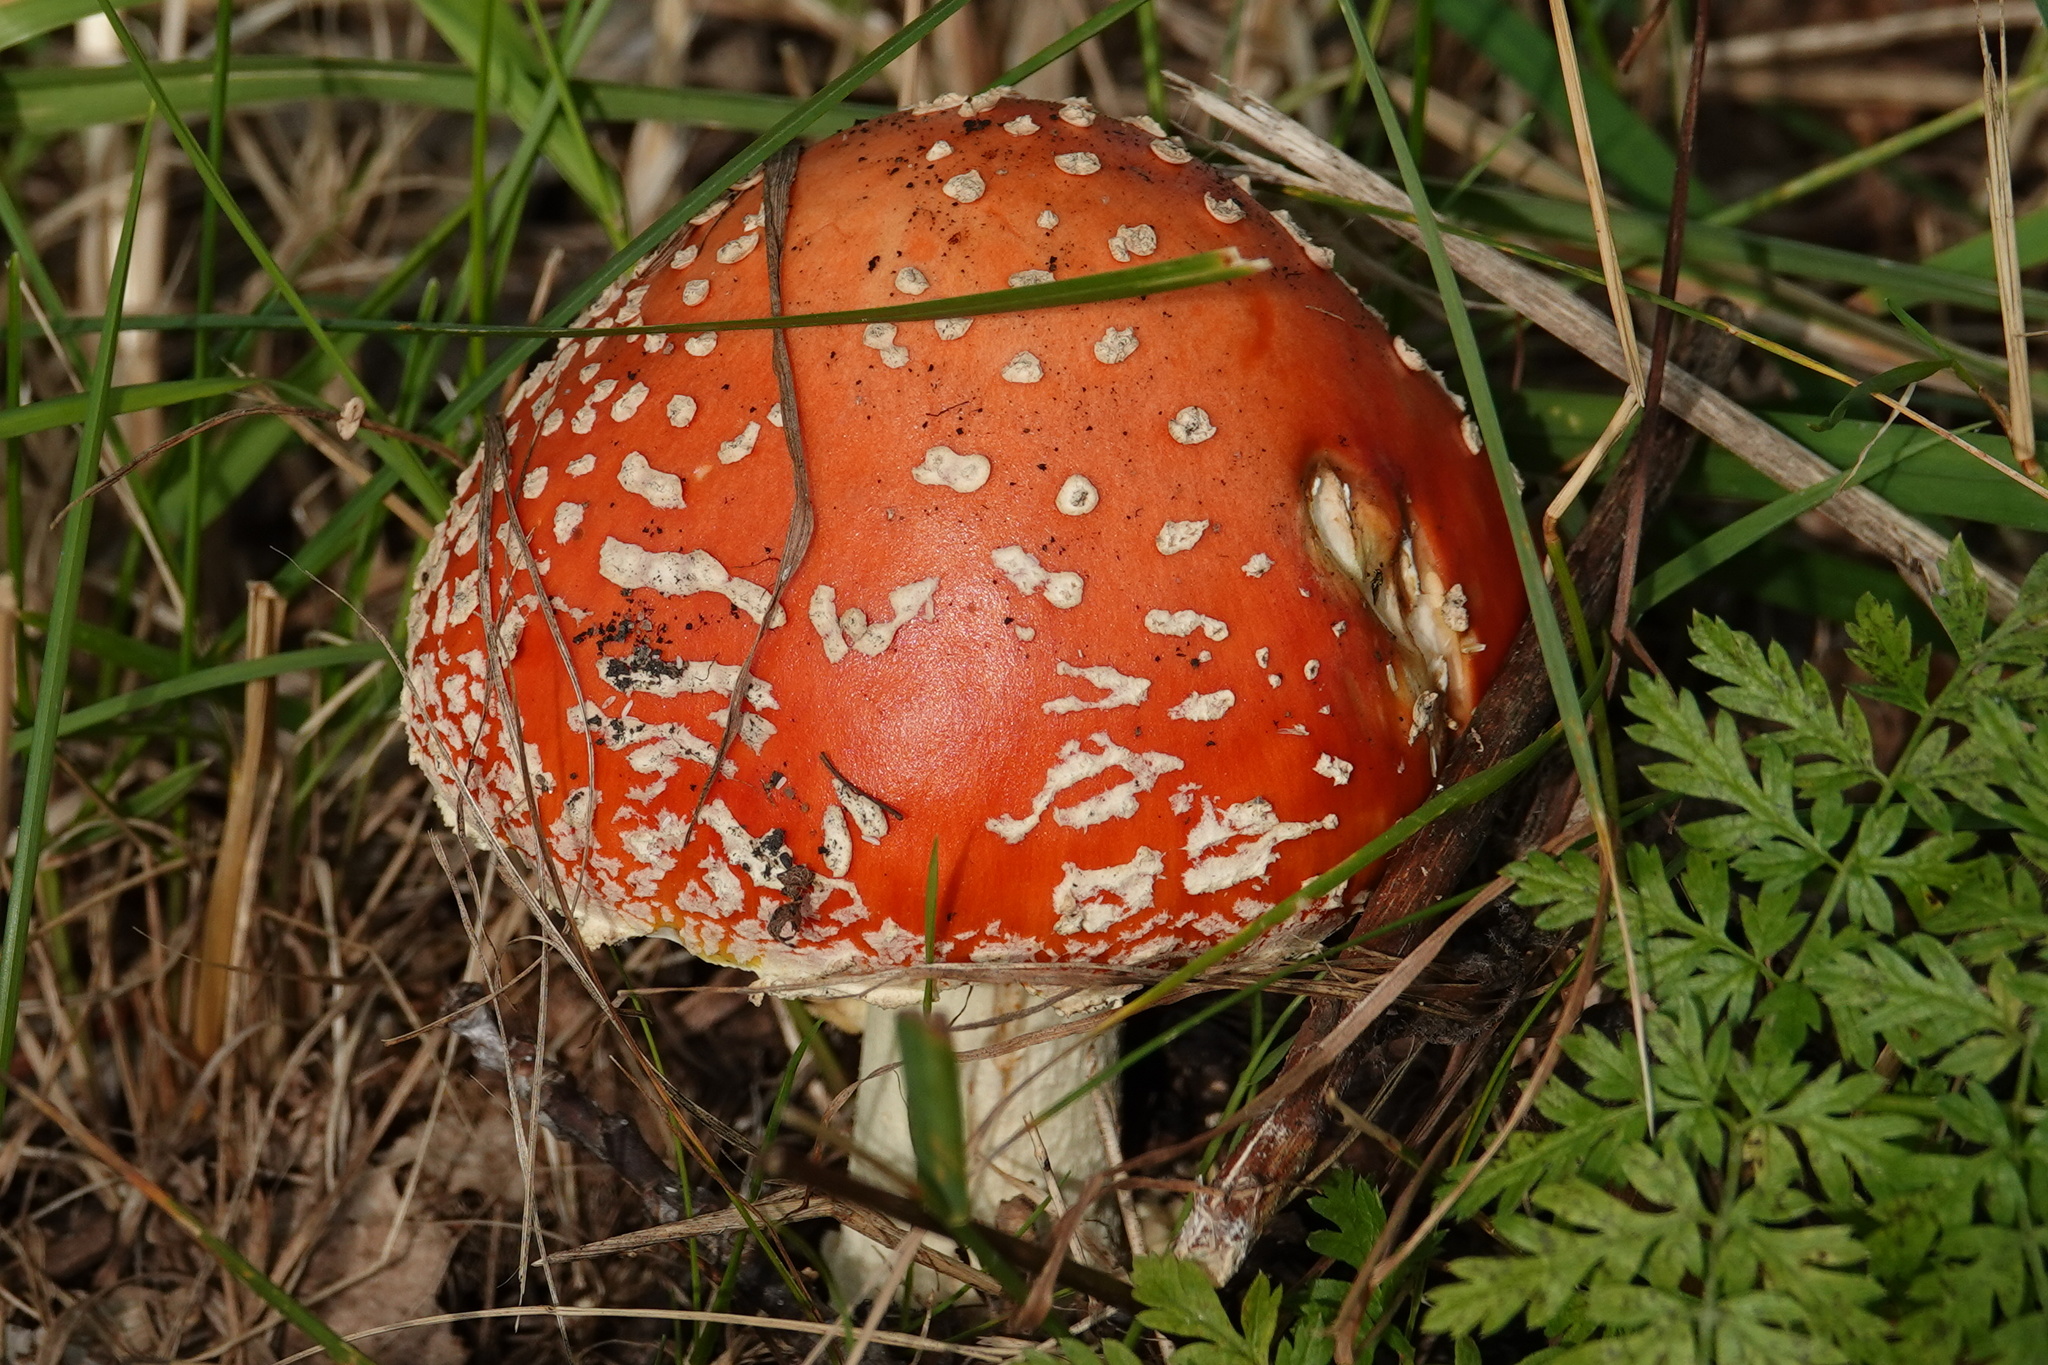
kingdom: Fungi
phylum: Basidiomycota
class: Agaricomycetes
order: Agaricales
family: Amanitaceae
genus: Amanita
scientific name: Amanita muscaria
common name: Fly agaric
